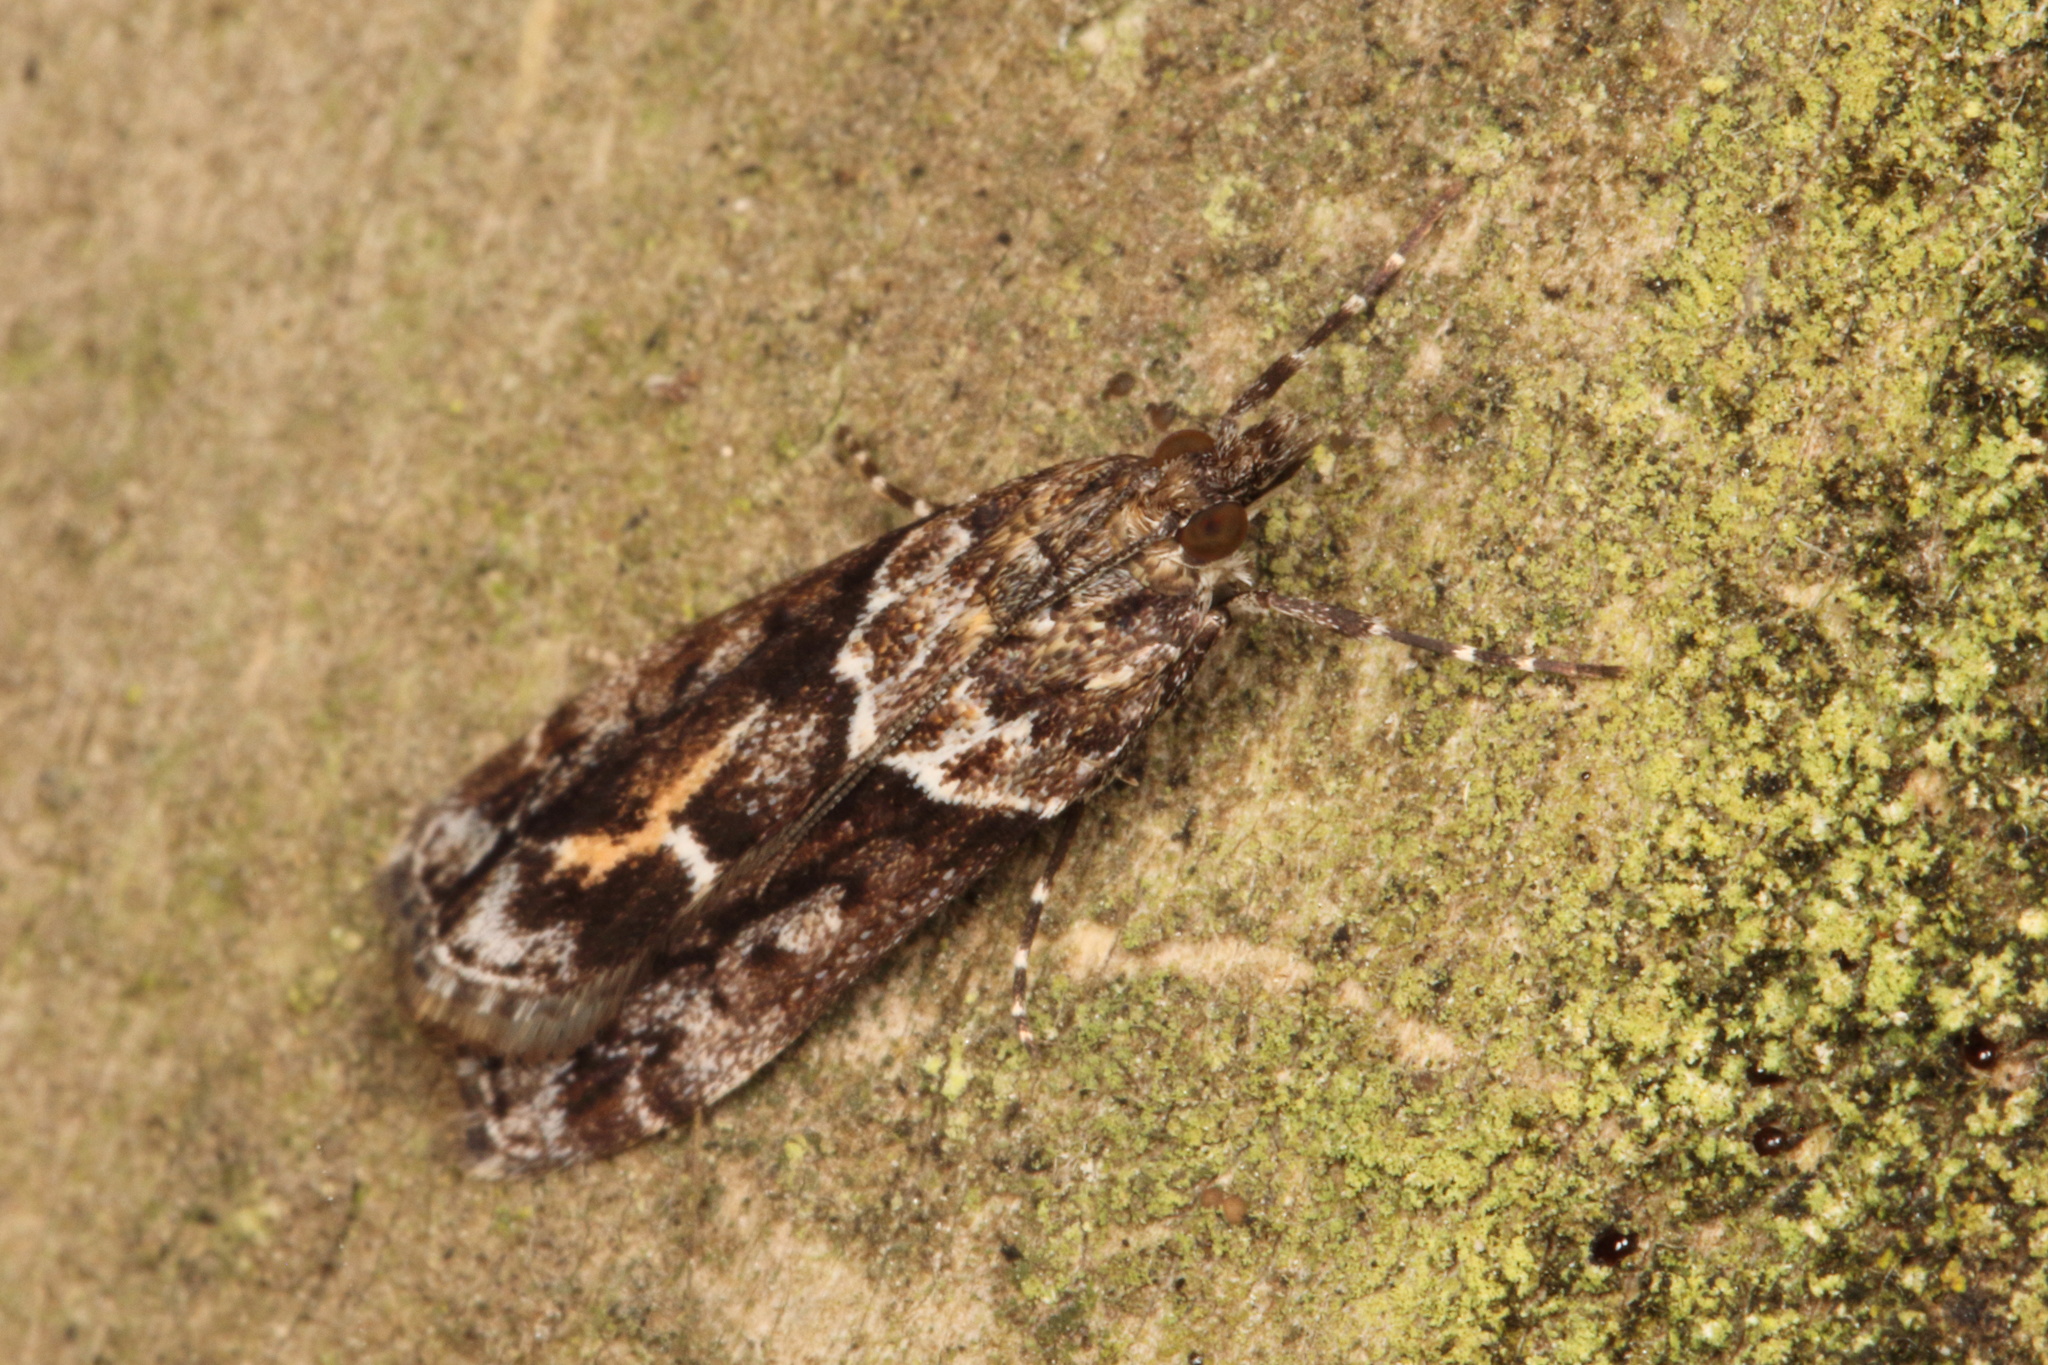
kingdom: Animalia
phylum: Arthropoda
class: Insecta
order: Lepidoptera
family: Crambidae
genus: Eudonia
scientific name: Eudonia submarginalis
